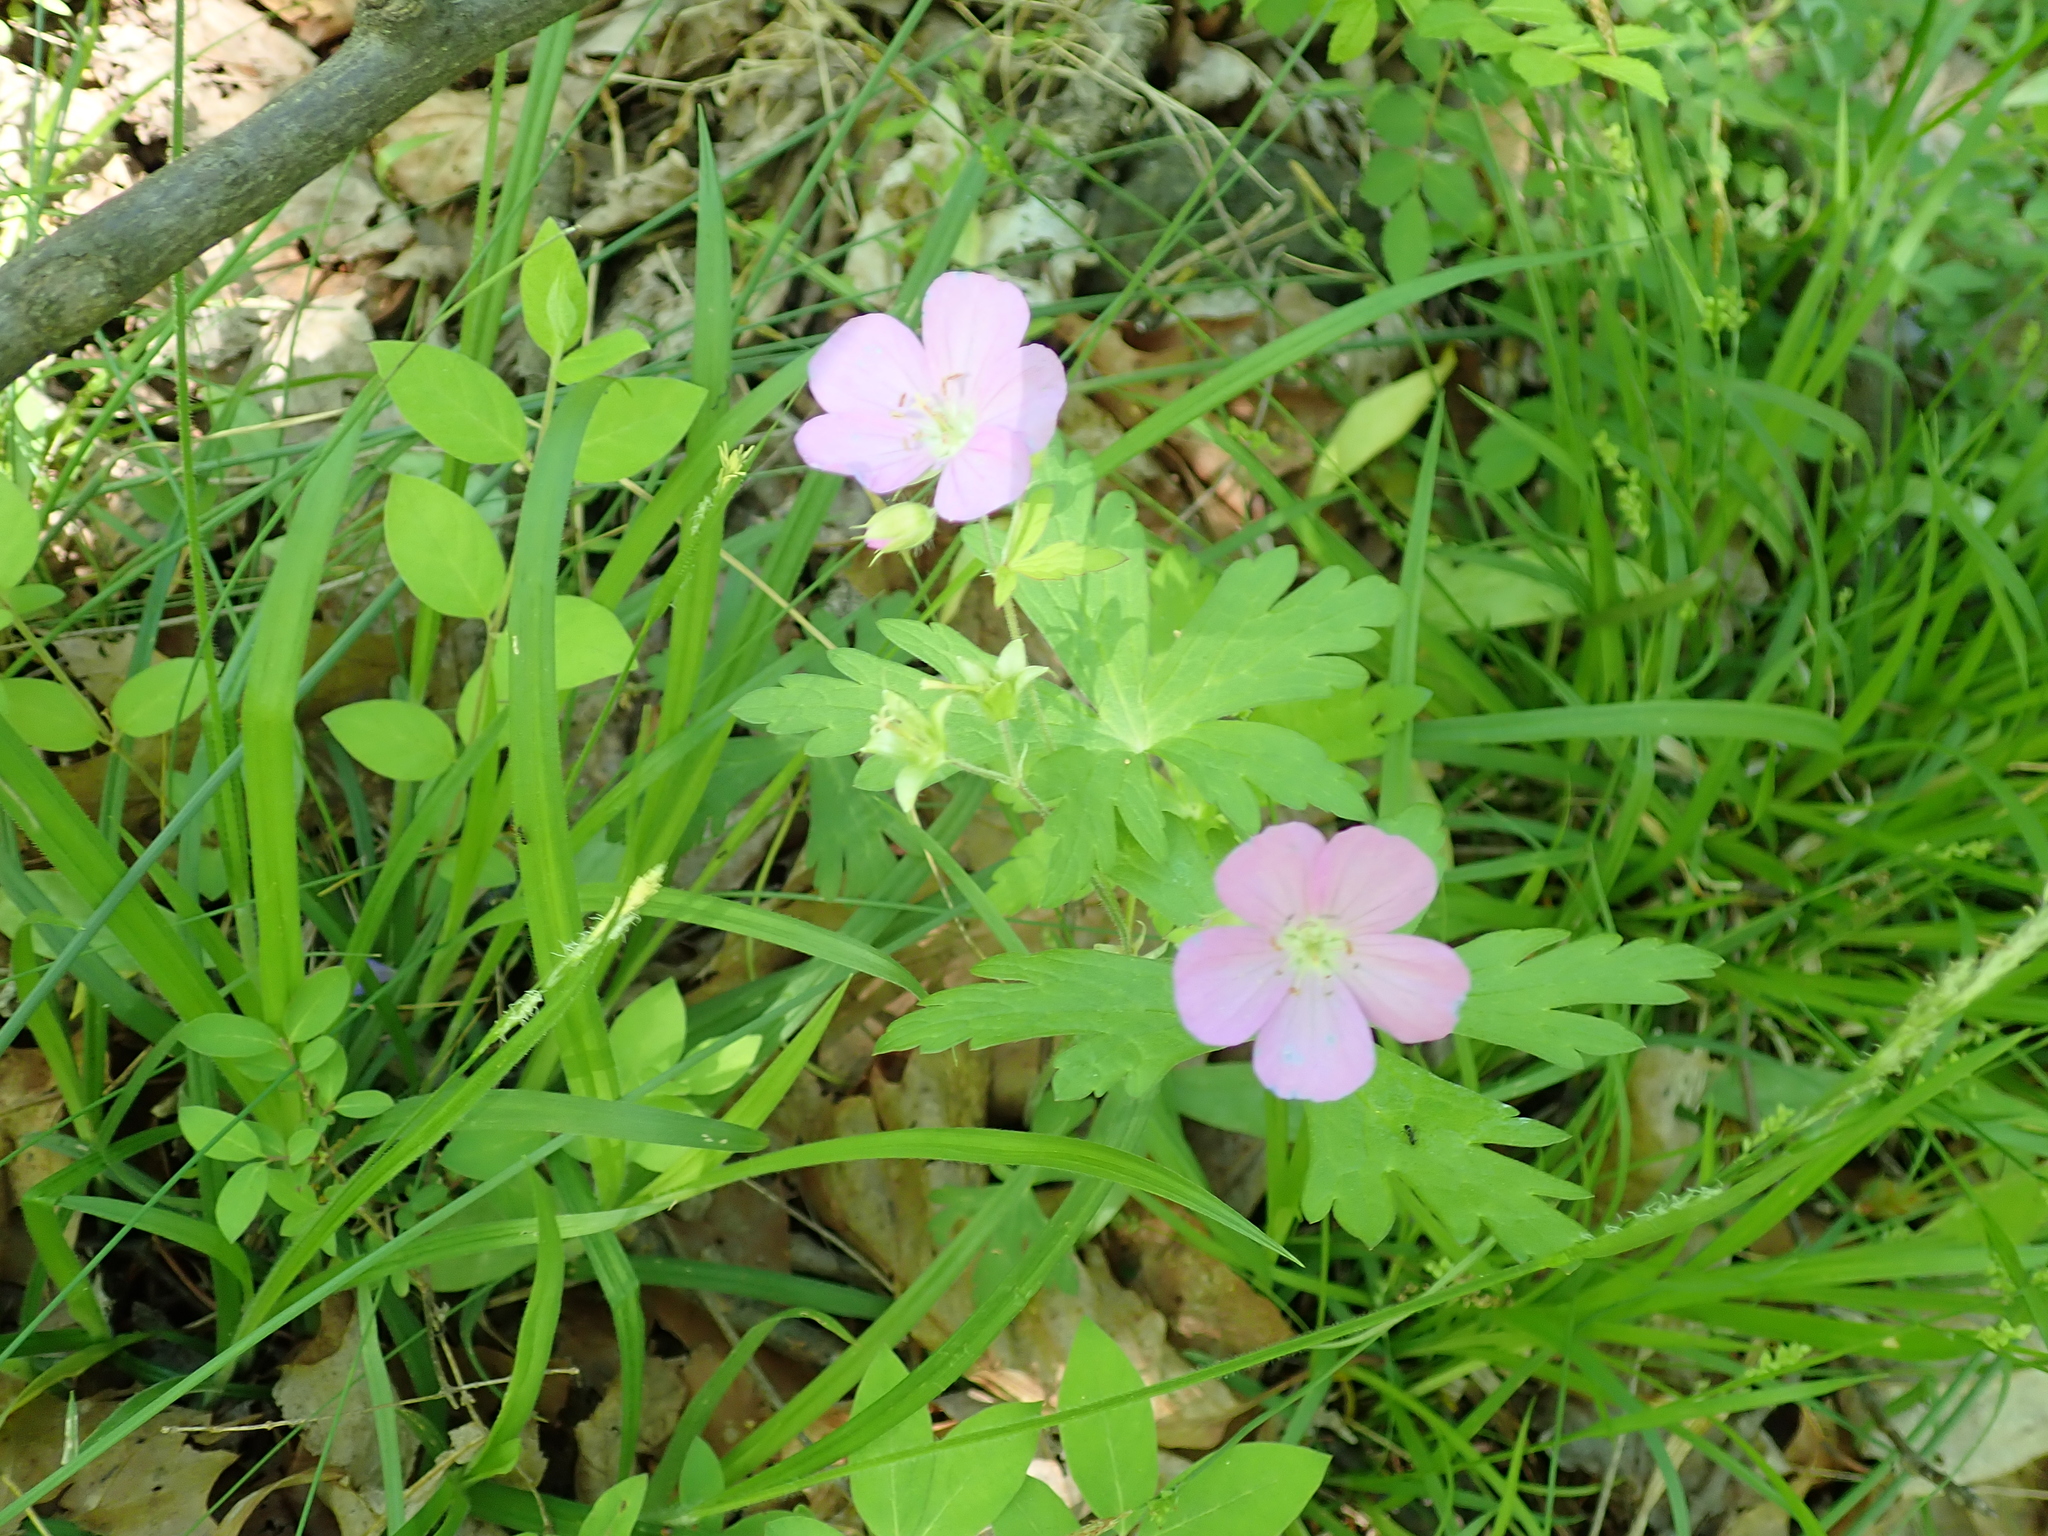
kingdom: Plantae
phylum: Tracheophyta
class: Magnoliopsida
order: Geraniales
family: Geraniaceae
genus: Geranium
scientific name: Geranium maculatum
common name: Spotted geranium
